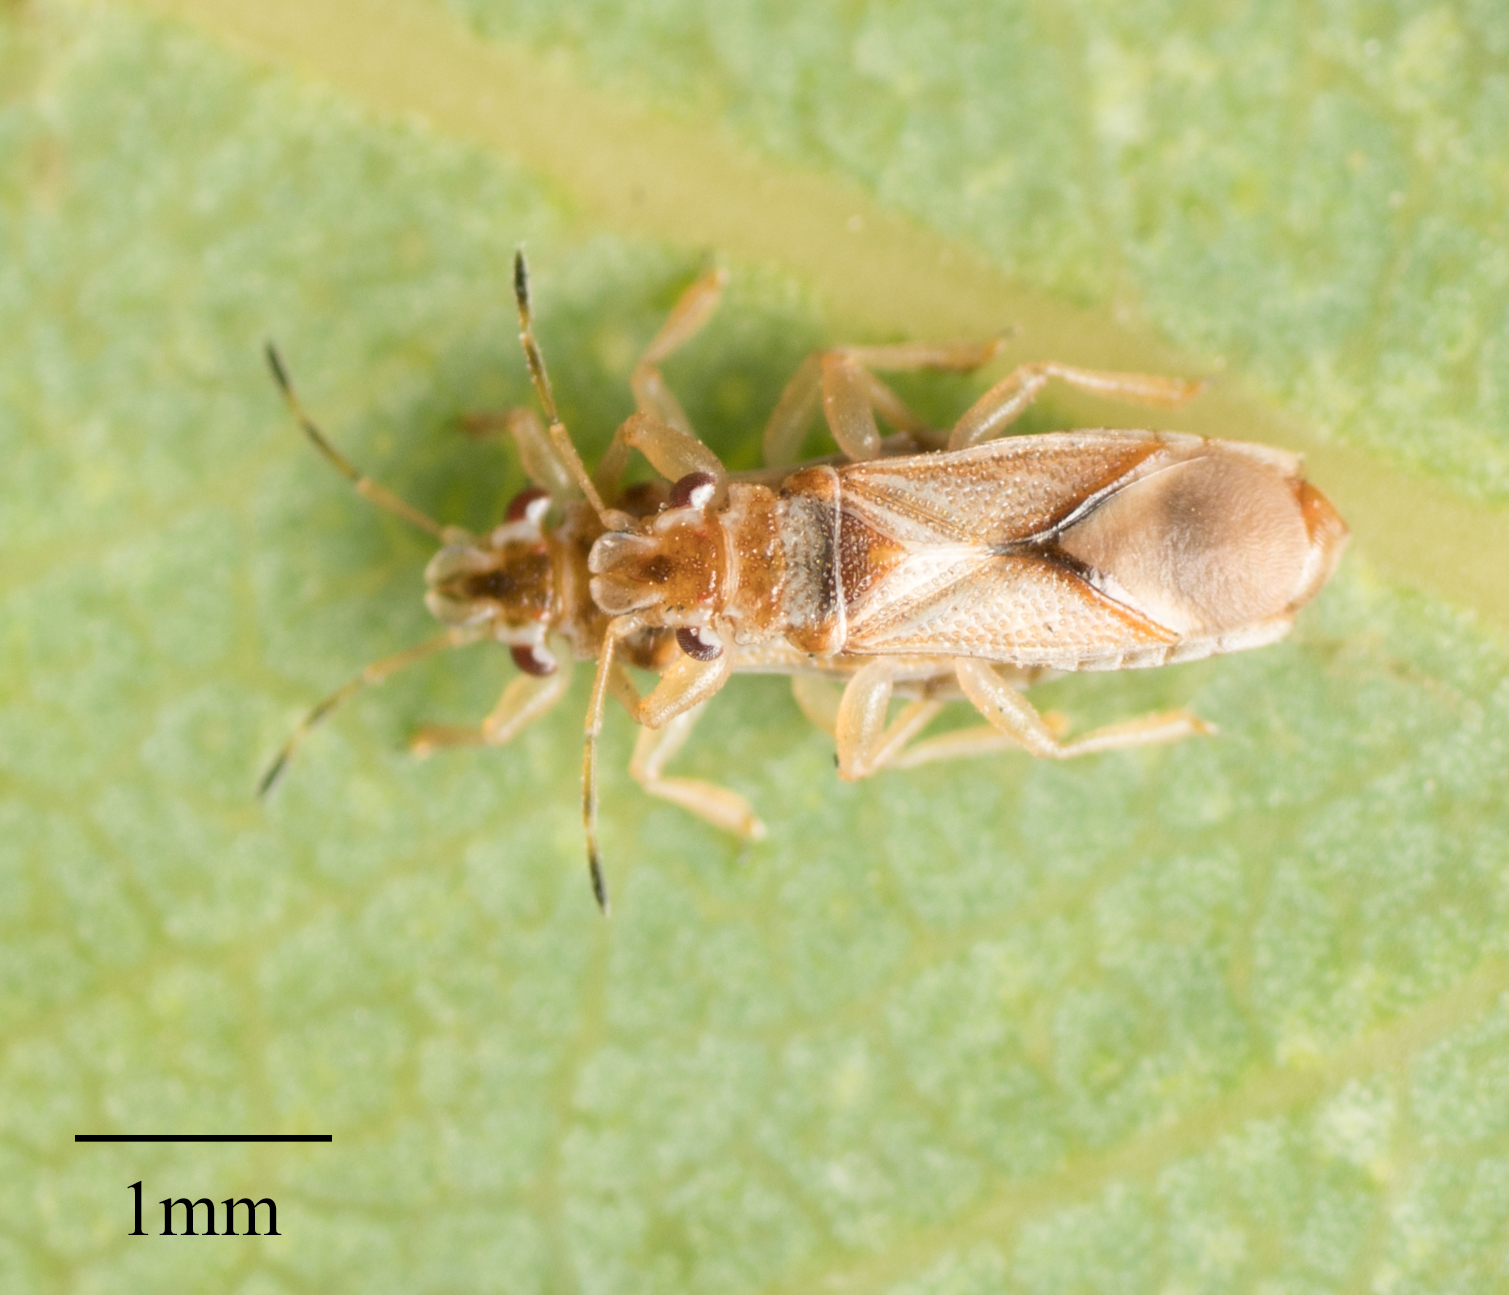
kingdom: Animalia
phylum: Arthropoda
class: Insecta
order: Hemiptera
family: Thaumastocoridae
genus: Thaumastocoris
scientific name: Thaumastocoris peregrinus
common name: Bronze bug
